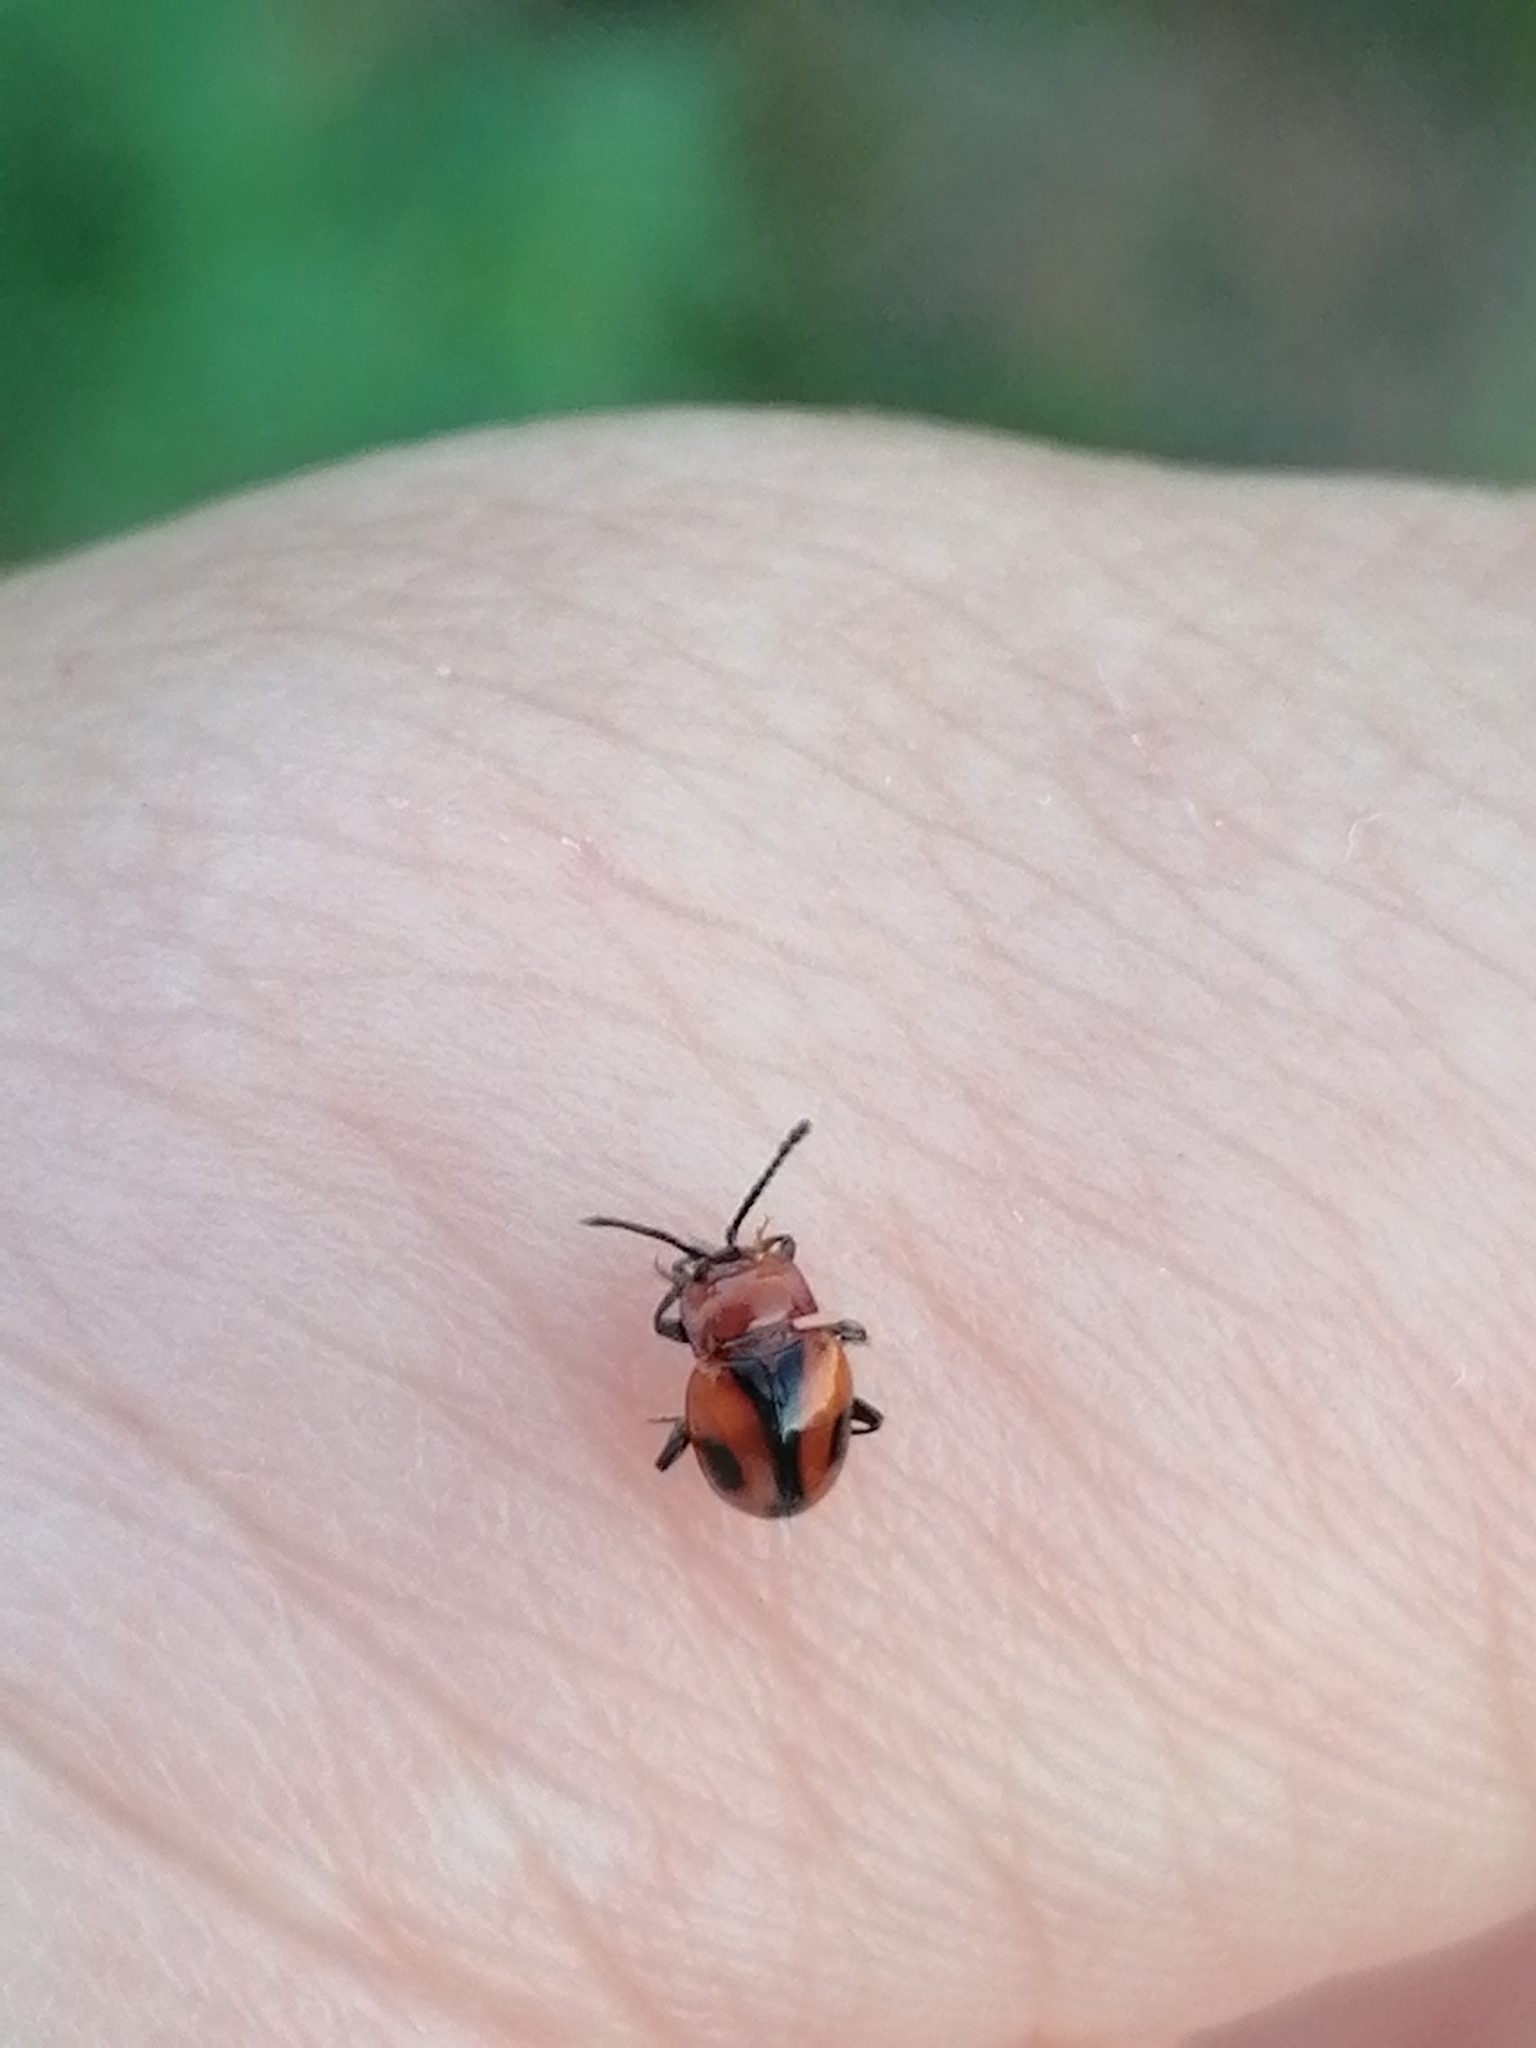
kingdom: Animalia
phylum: Arthropoda
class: Insecta
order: Coleoptera
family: Endomychidae
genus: Mycetina
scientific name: Mycetina cruciata
